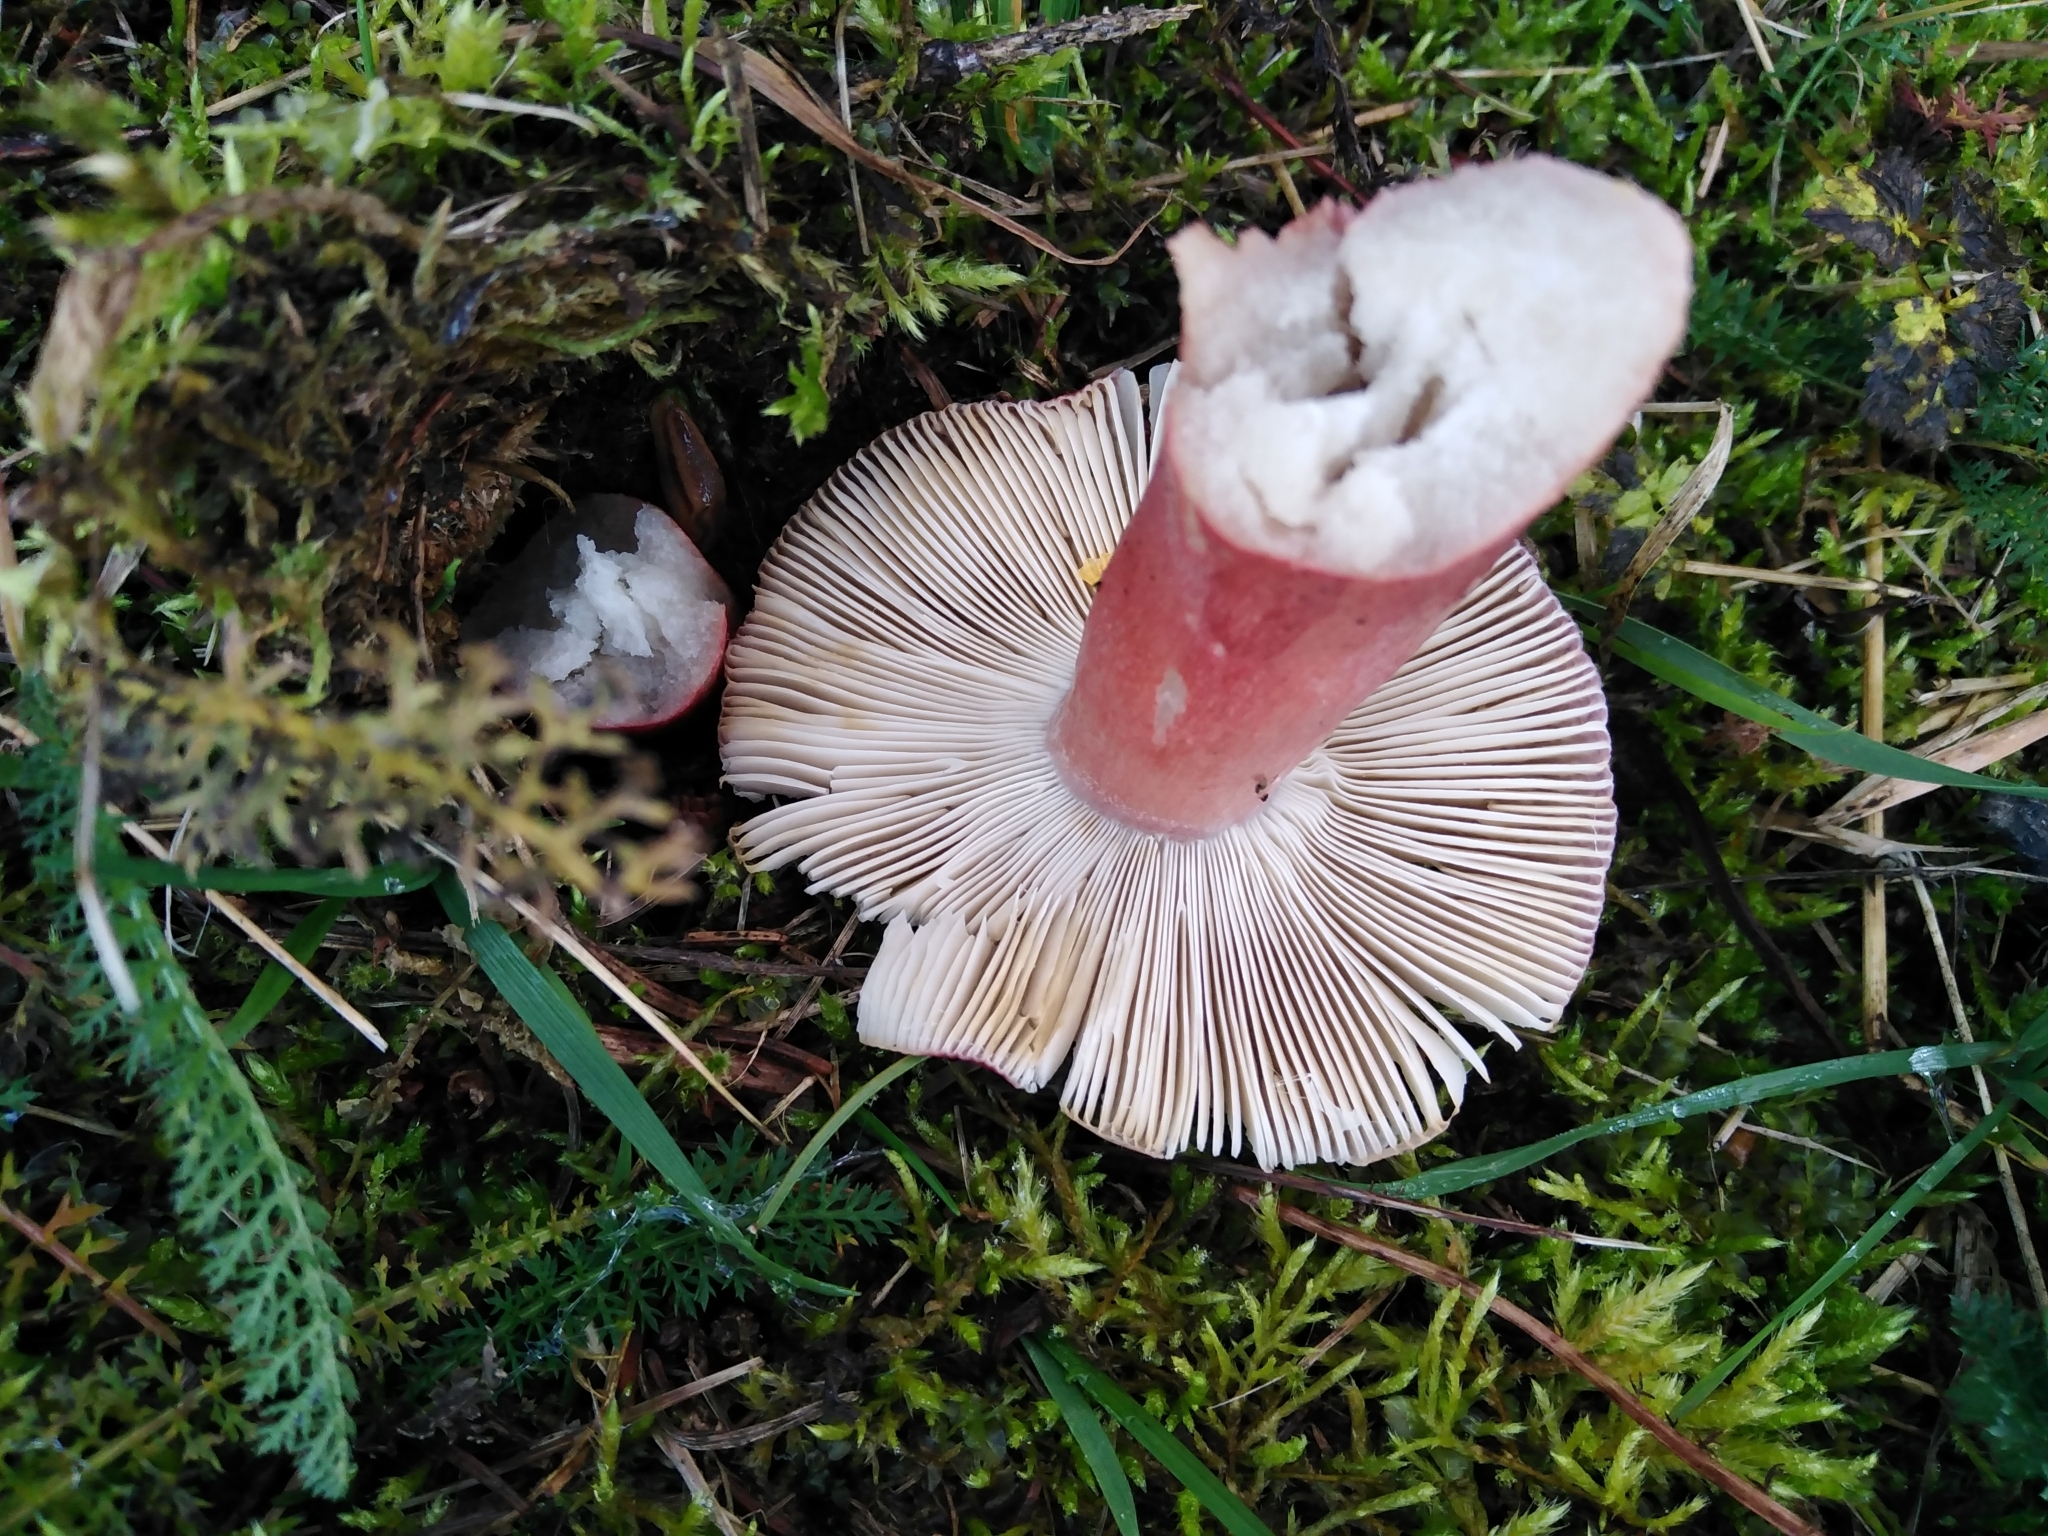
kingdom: Fungi
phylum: Basidiomycota
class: Agaricomycetes
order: Russulales
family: Russulaceae
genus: Russula
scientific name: Russula sanguinea
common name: Bloody brittlegill
